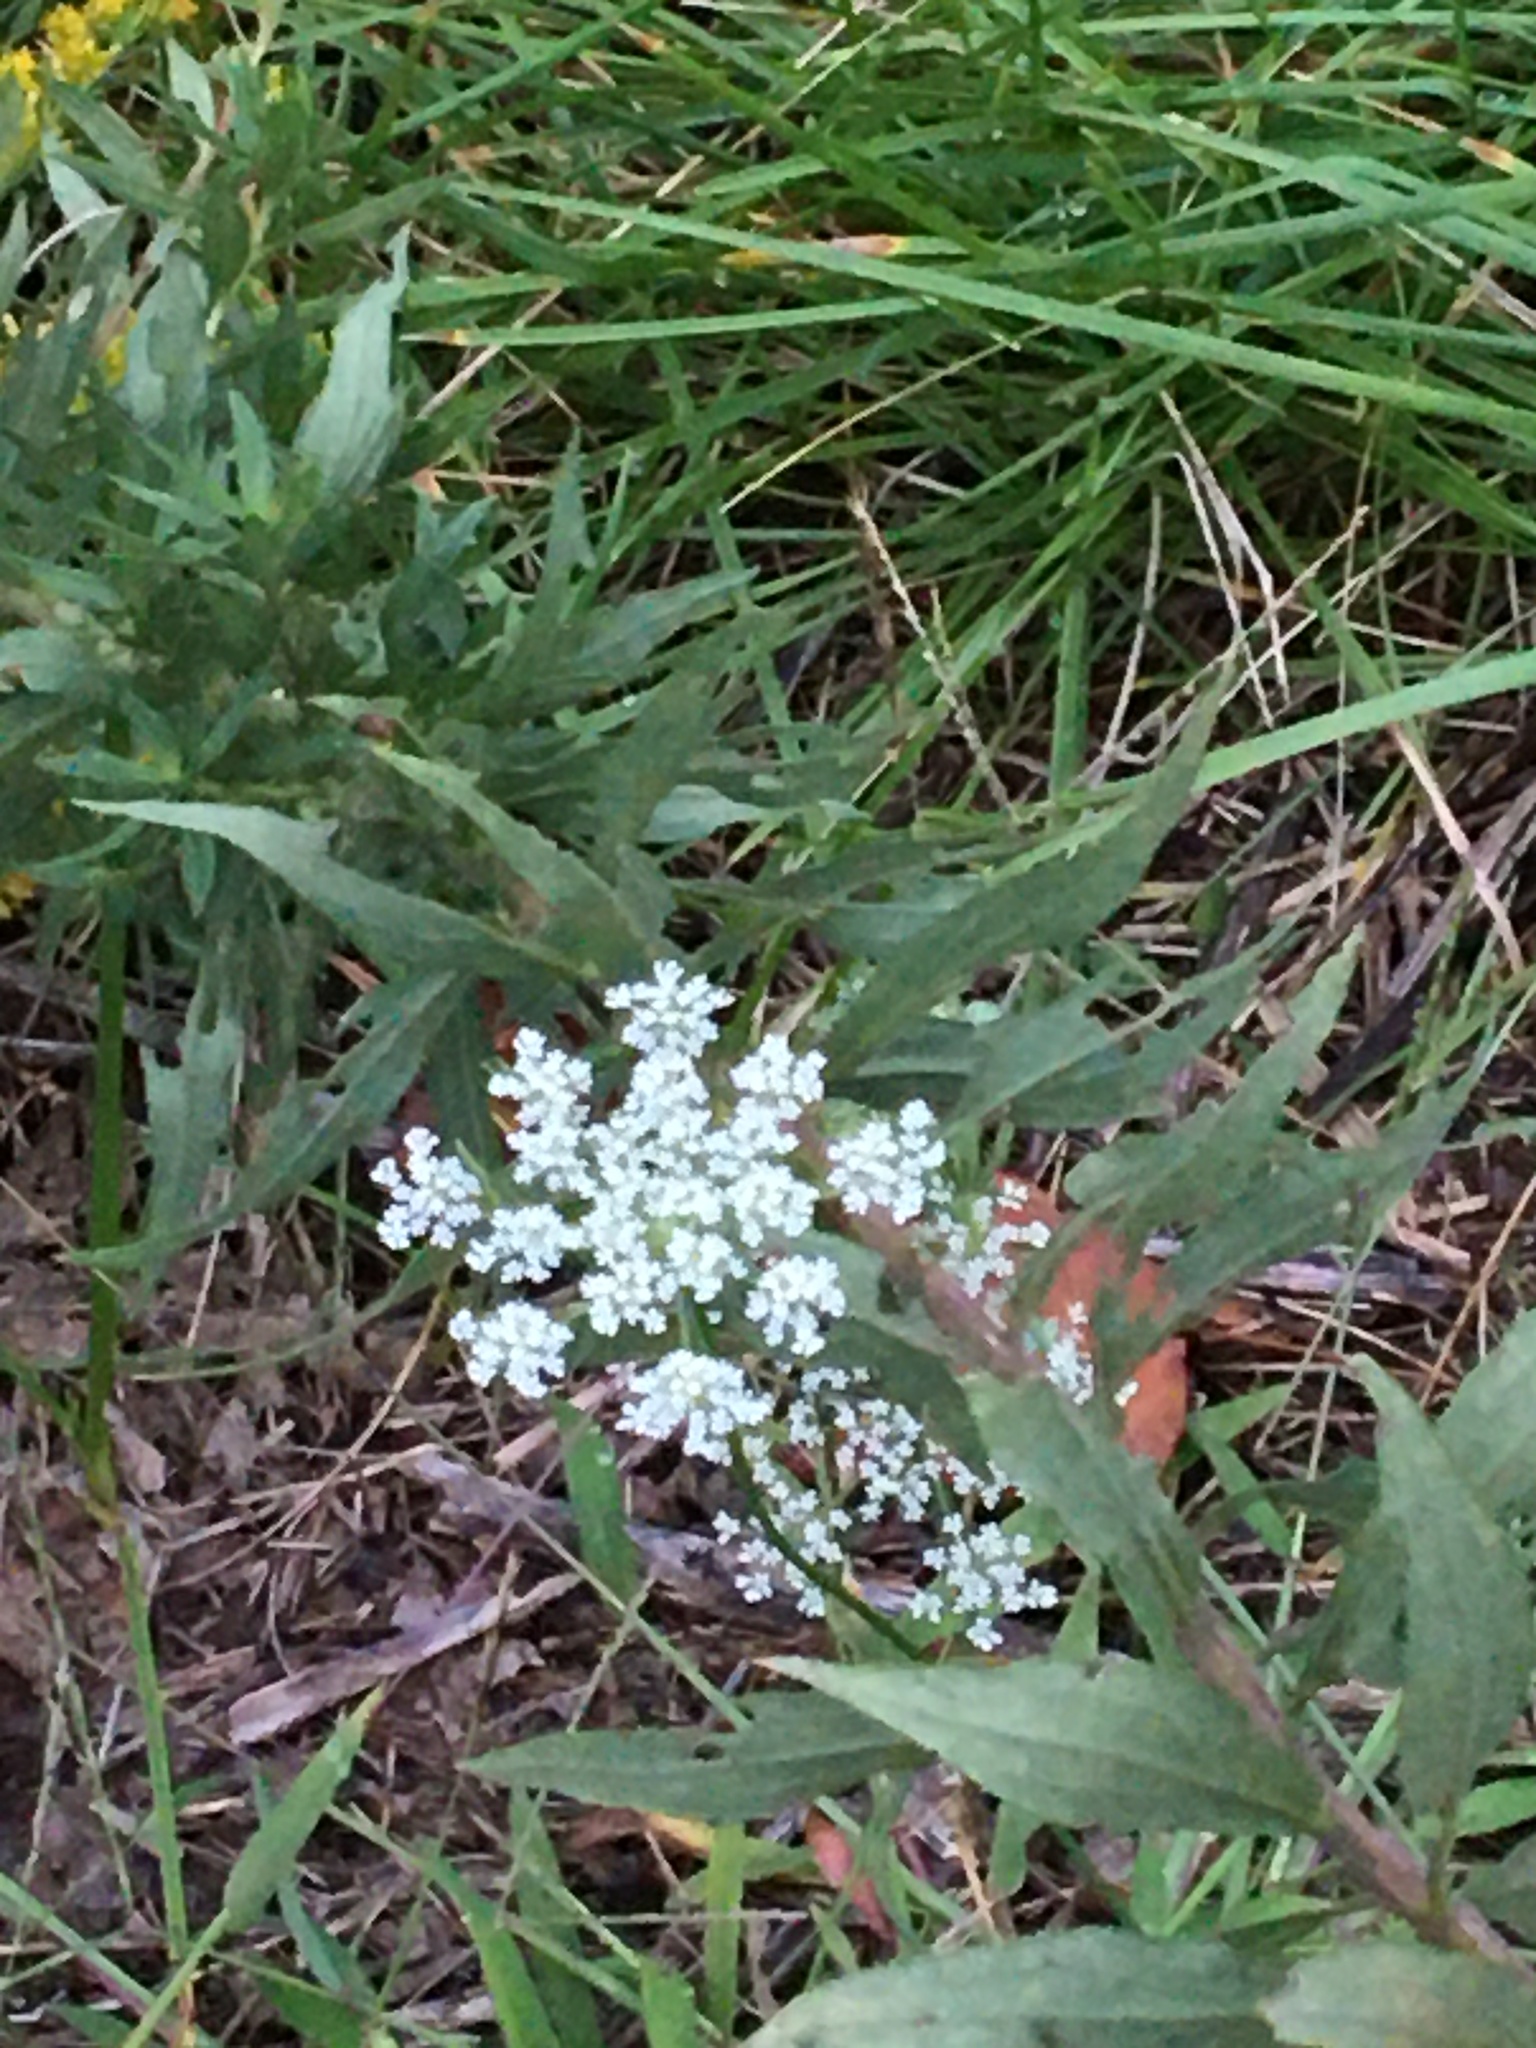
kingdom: Plantae
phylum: Tracheophyta
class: Magnoliopsida
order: Apiales
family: Apiaceae
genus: Daucus
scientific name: Daucus carota
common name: Wild carrot
